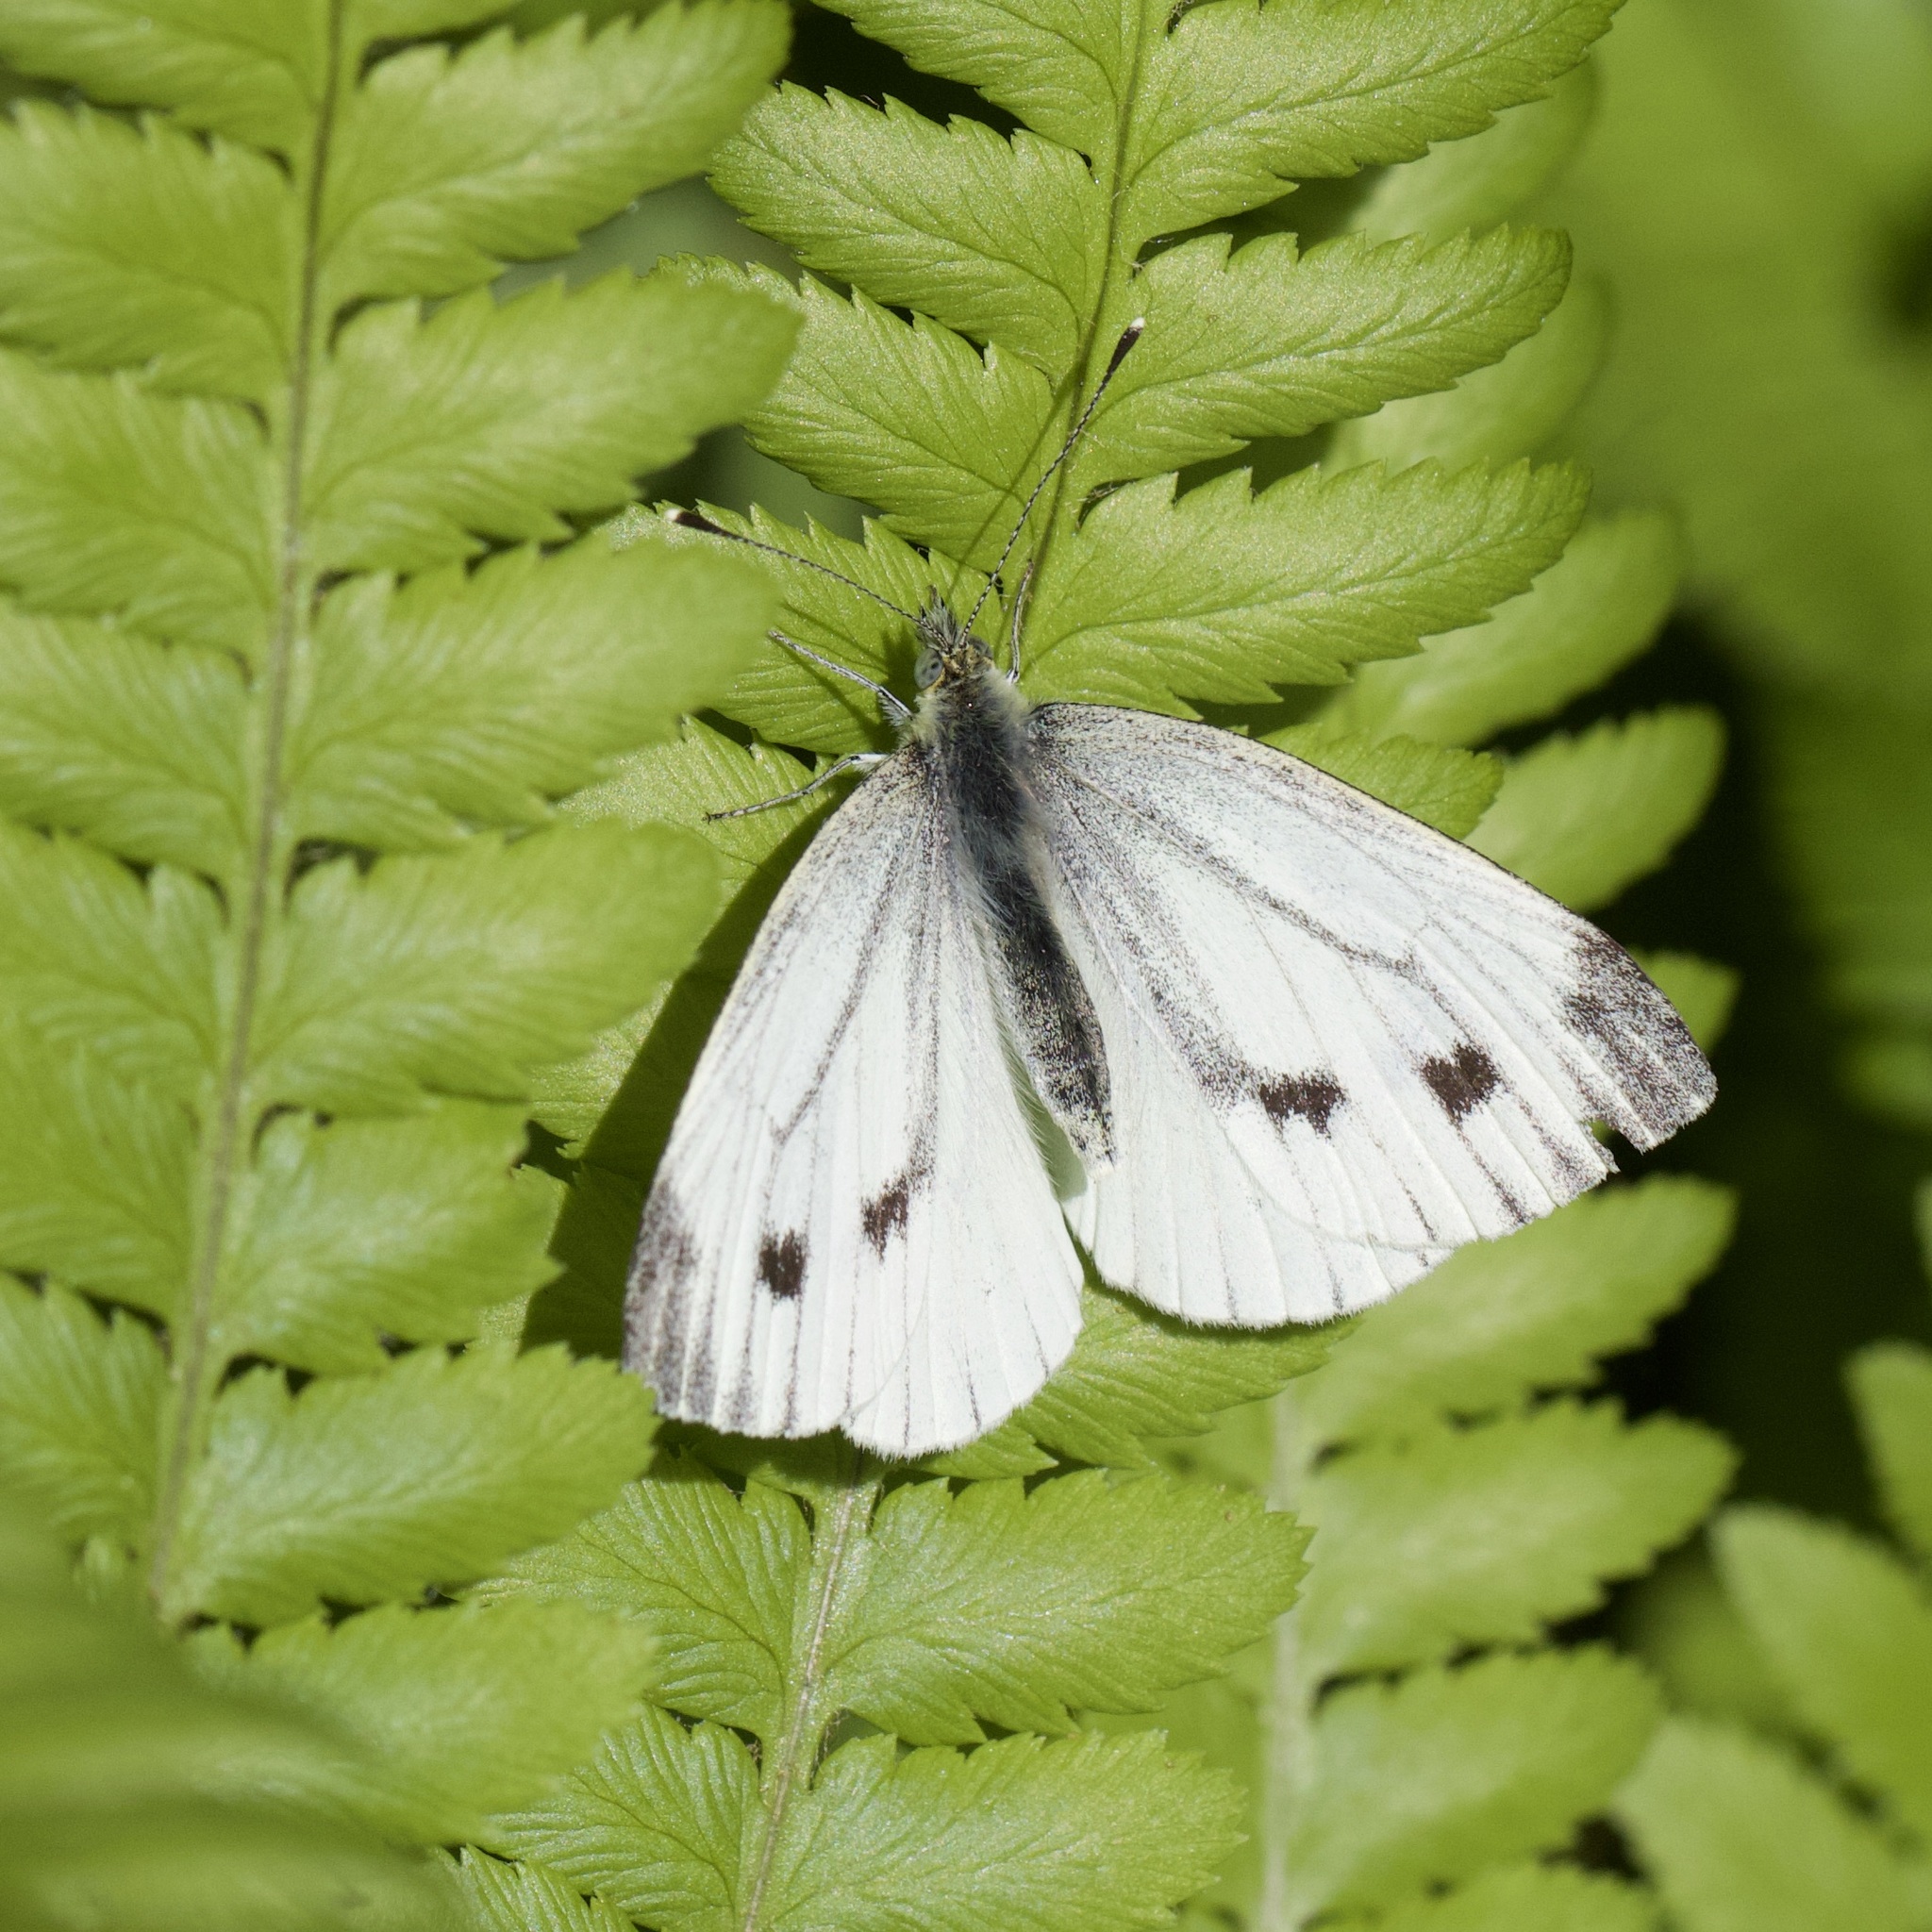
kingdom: Animalia
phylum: Arthropoda
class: Insecta
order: Lepidoptera
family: Pieridae
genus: Pieris
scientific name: Pieris napi
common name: Green-veined white
